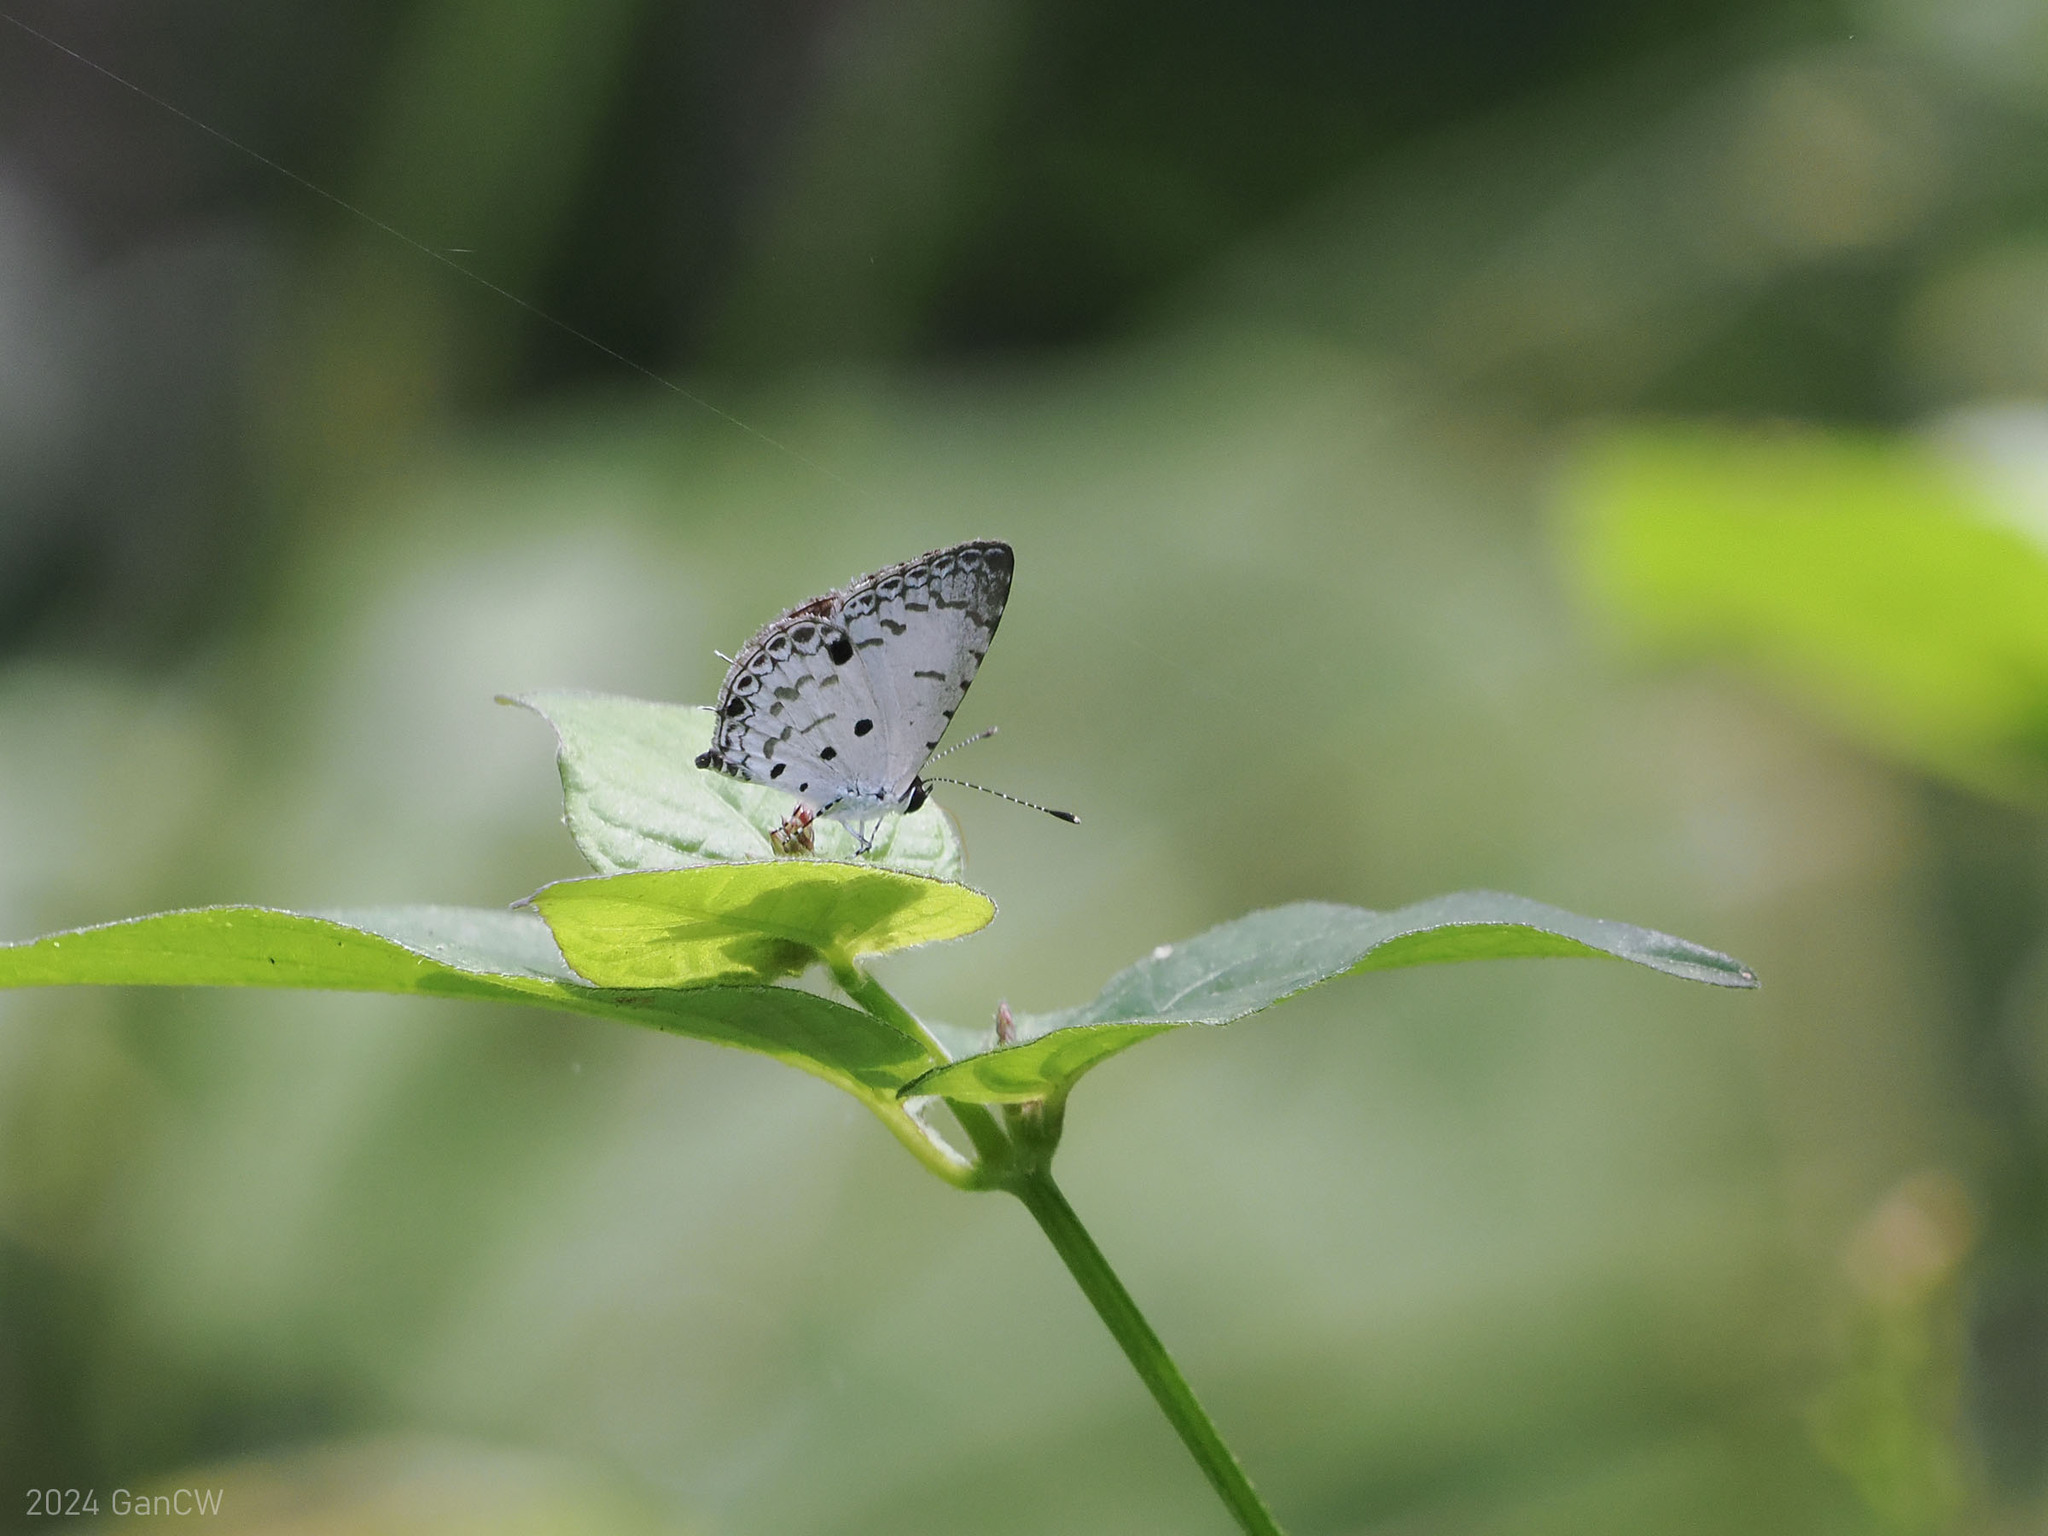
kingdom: Animalia
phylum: Arthropoda
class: Insecta
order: Lepidoptera
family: Lycaenidae
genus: Megisba
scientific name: Megisba malaya
